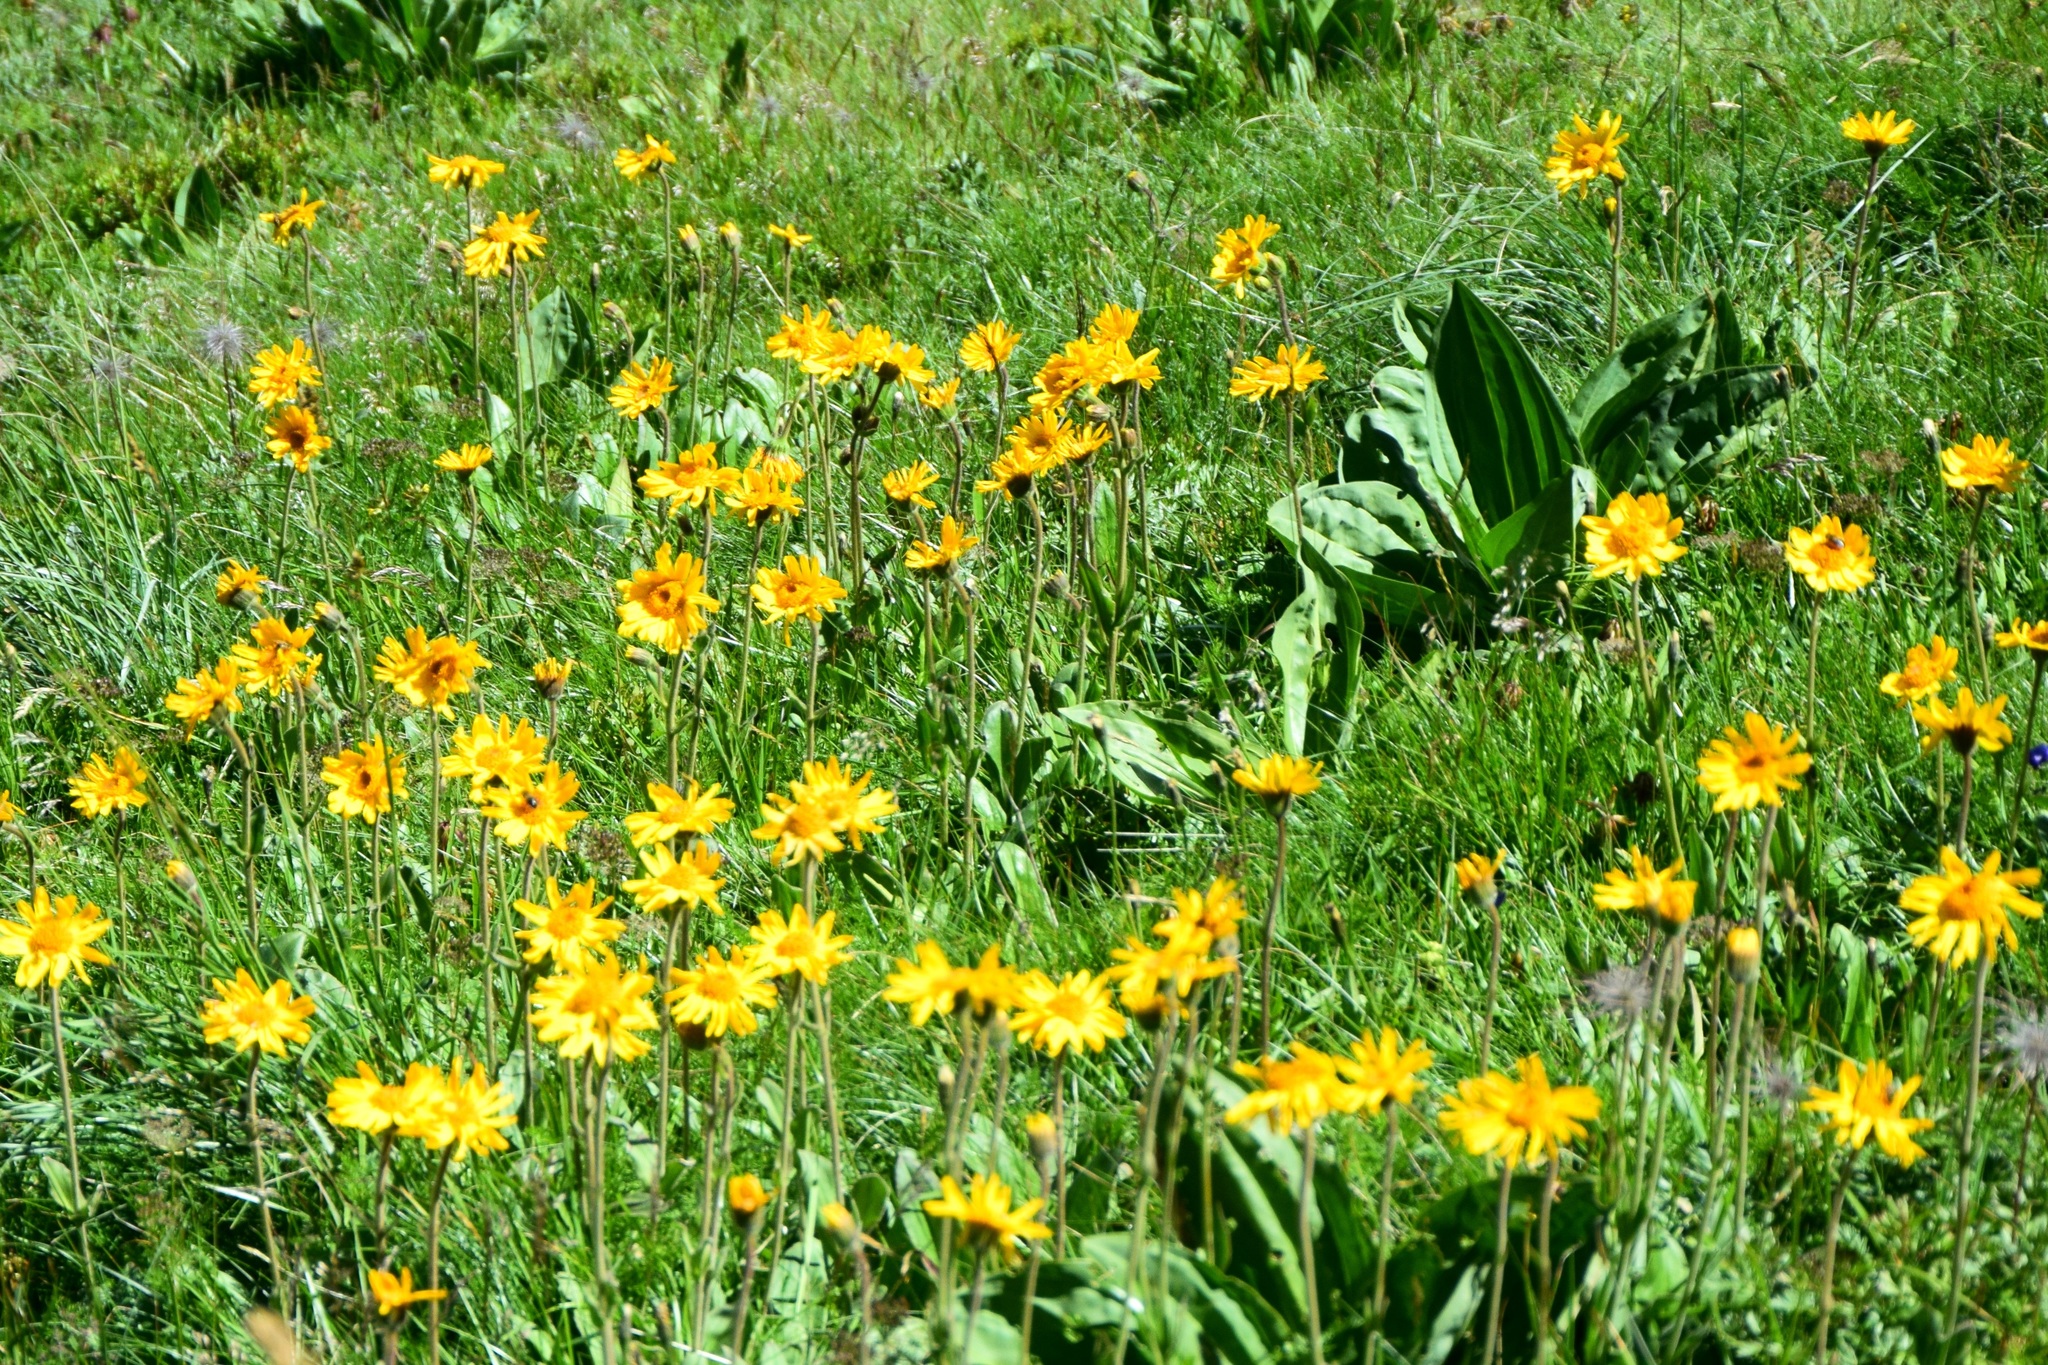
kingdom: Plantae
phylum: Tracheophyta
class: Magnoliopsida
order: Asterales
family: Asteraceae
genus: Arnica
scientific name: Arnica montana
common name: Leopard's bane
